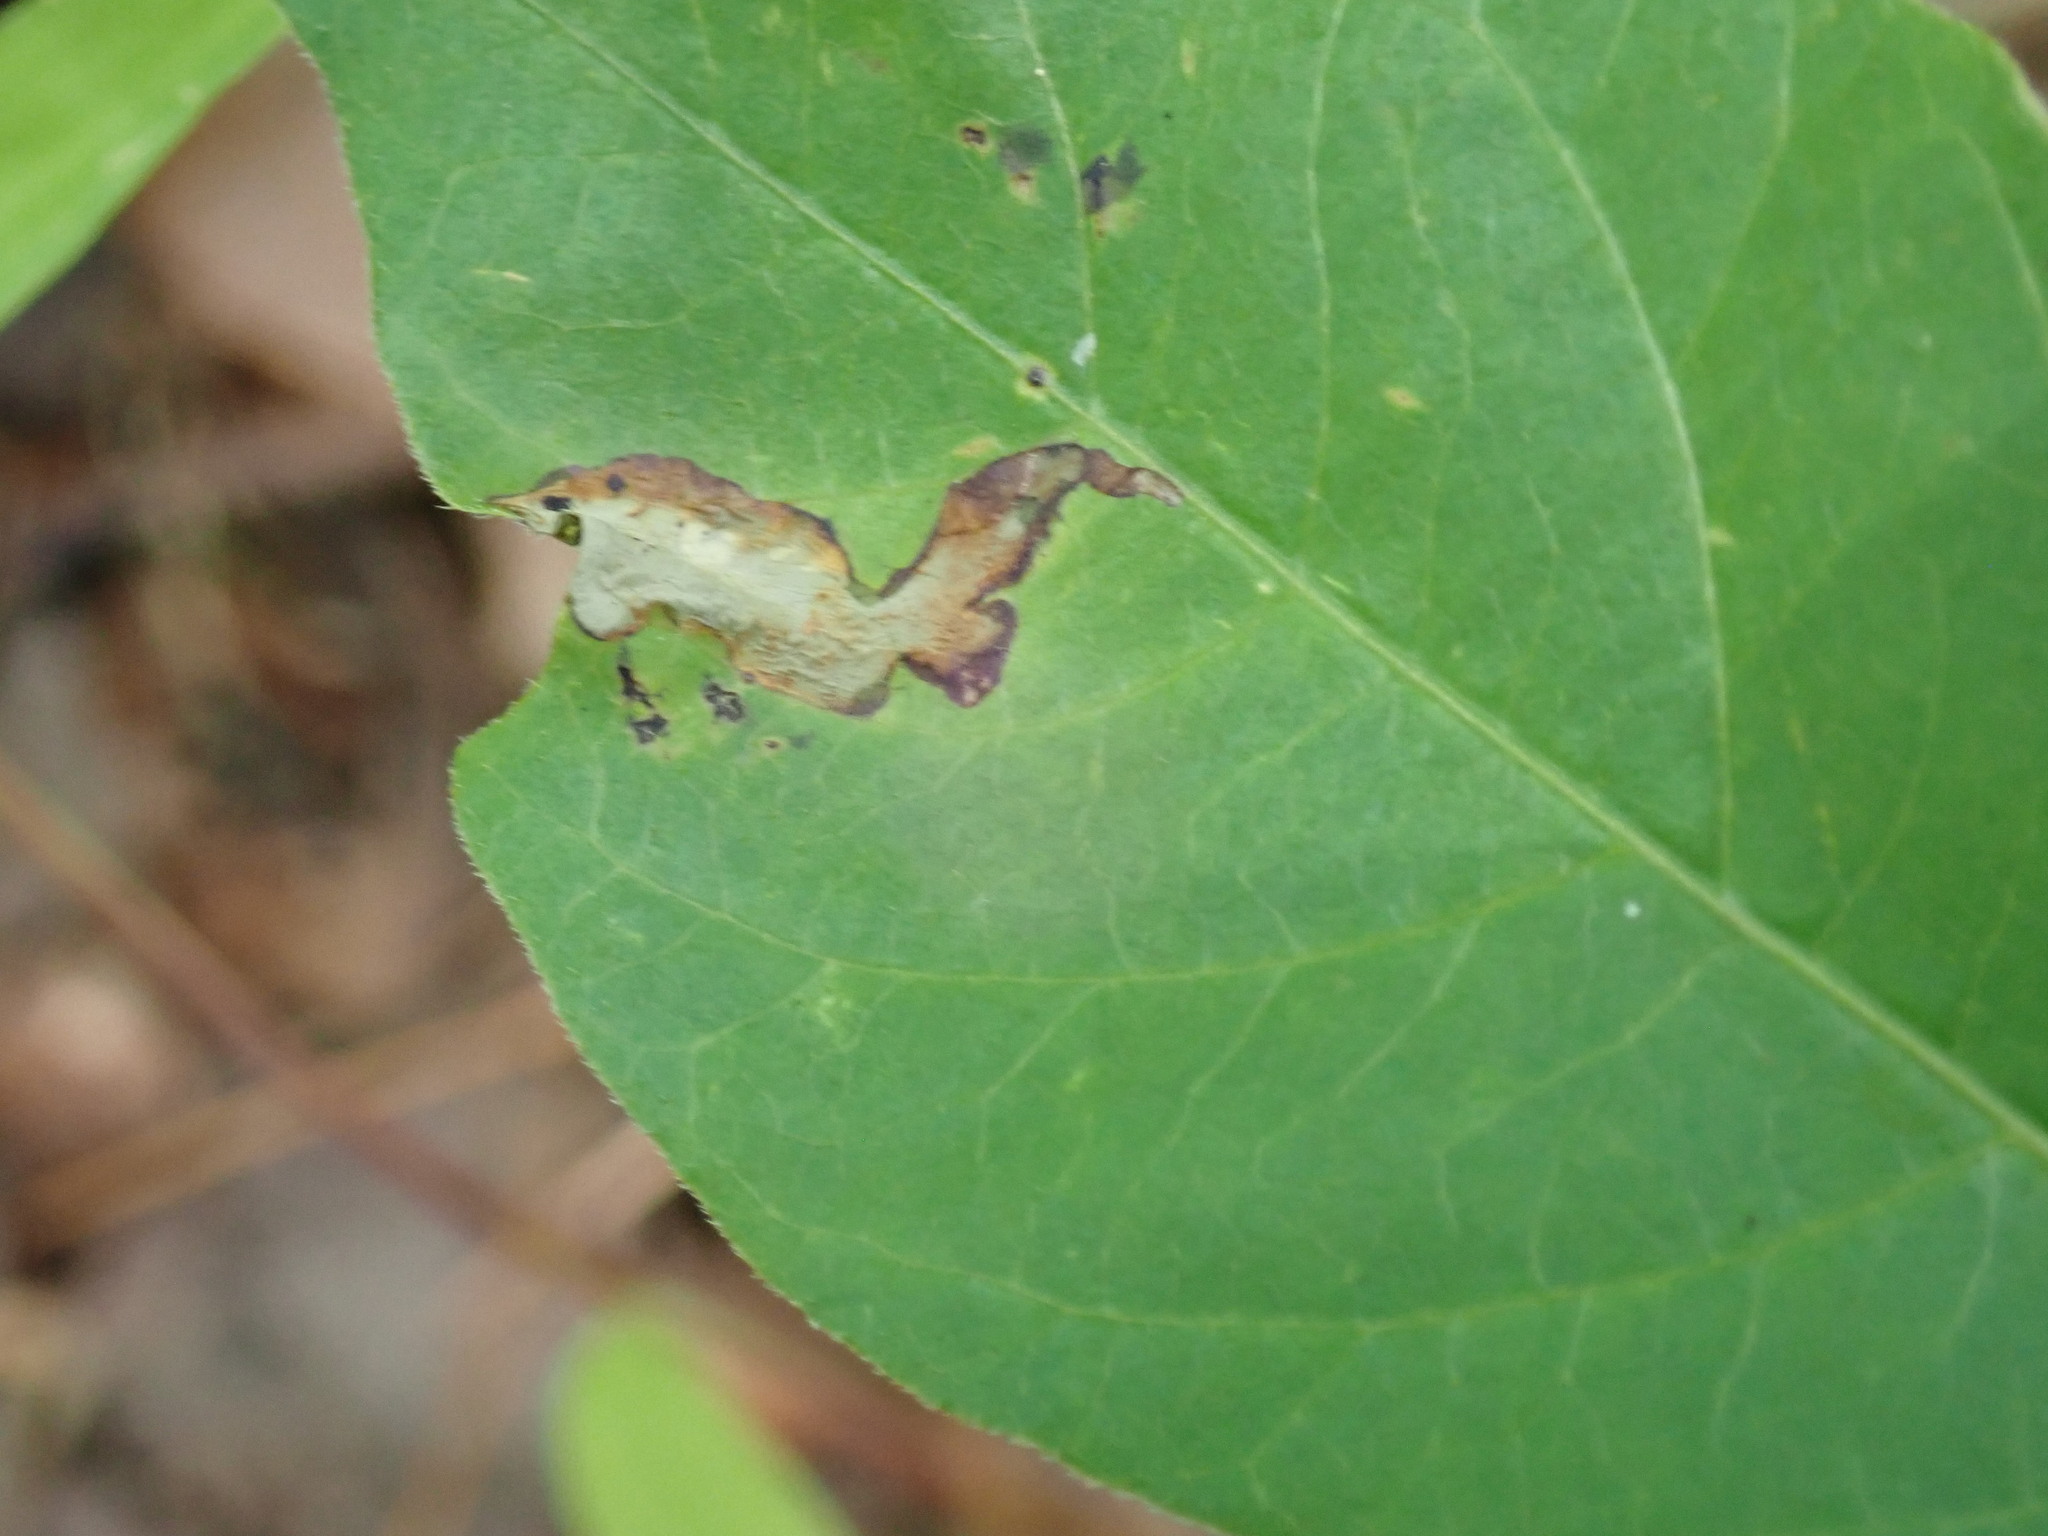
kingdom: Animalia
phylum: Arthropoda
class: Insecta
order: Lepidoptera
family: Gracillariidae
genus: Caloptilia
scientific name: Caloptilia rhoifoliella
